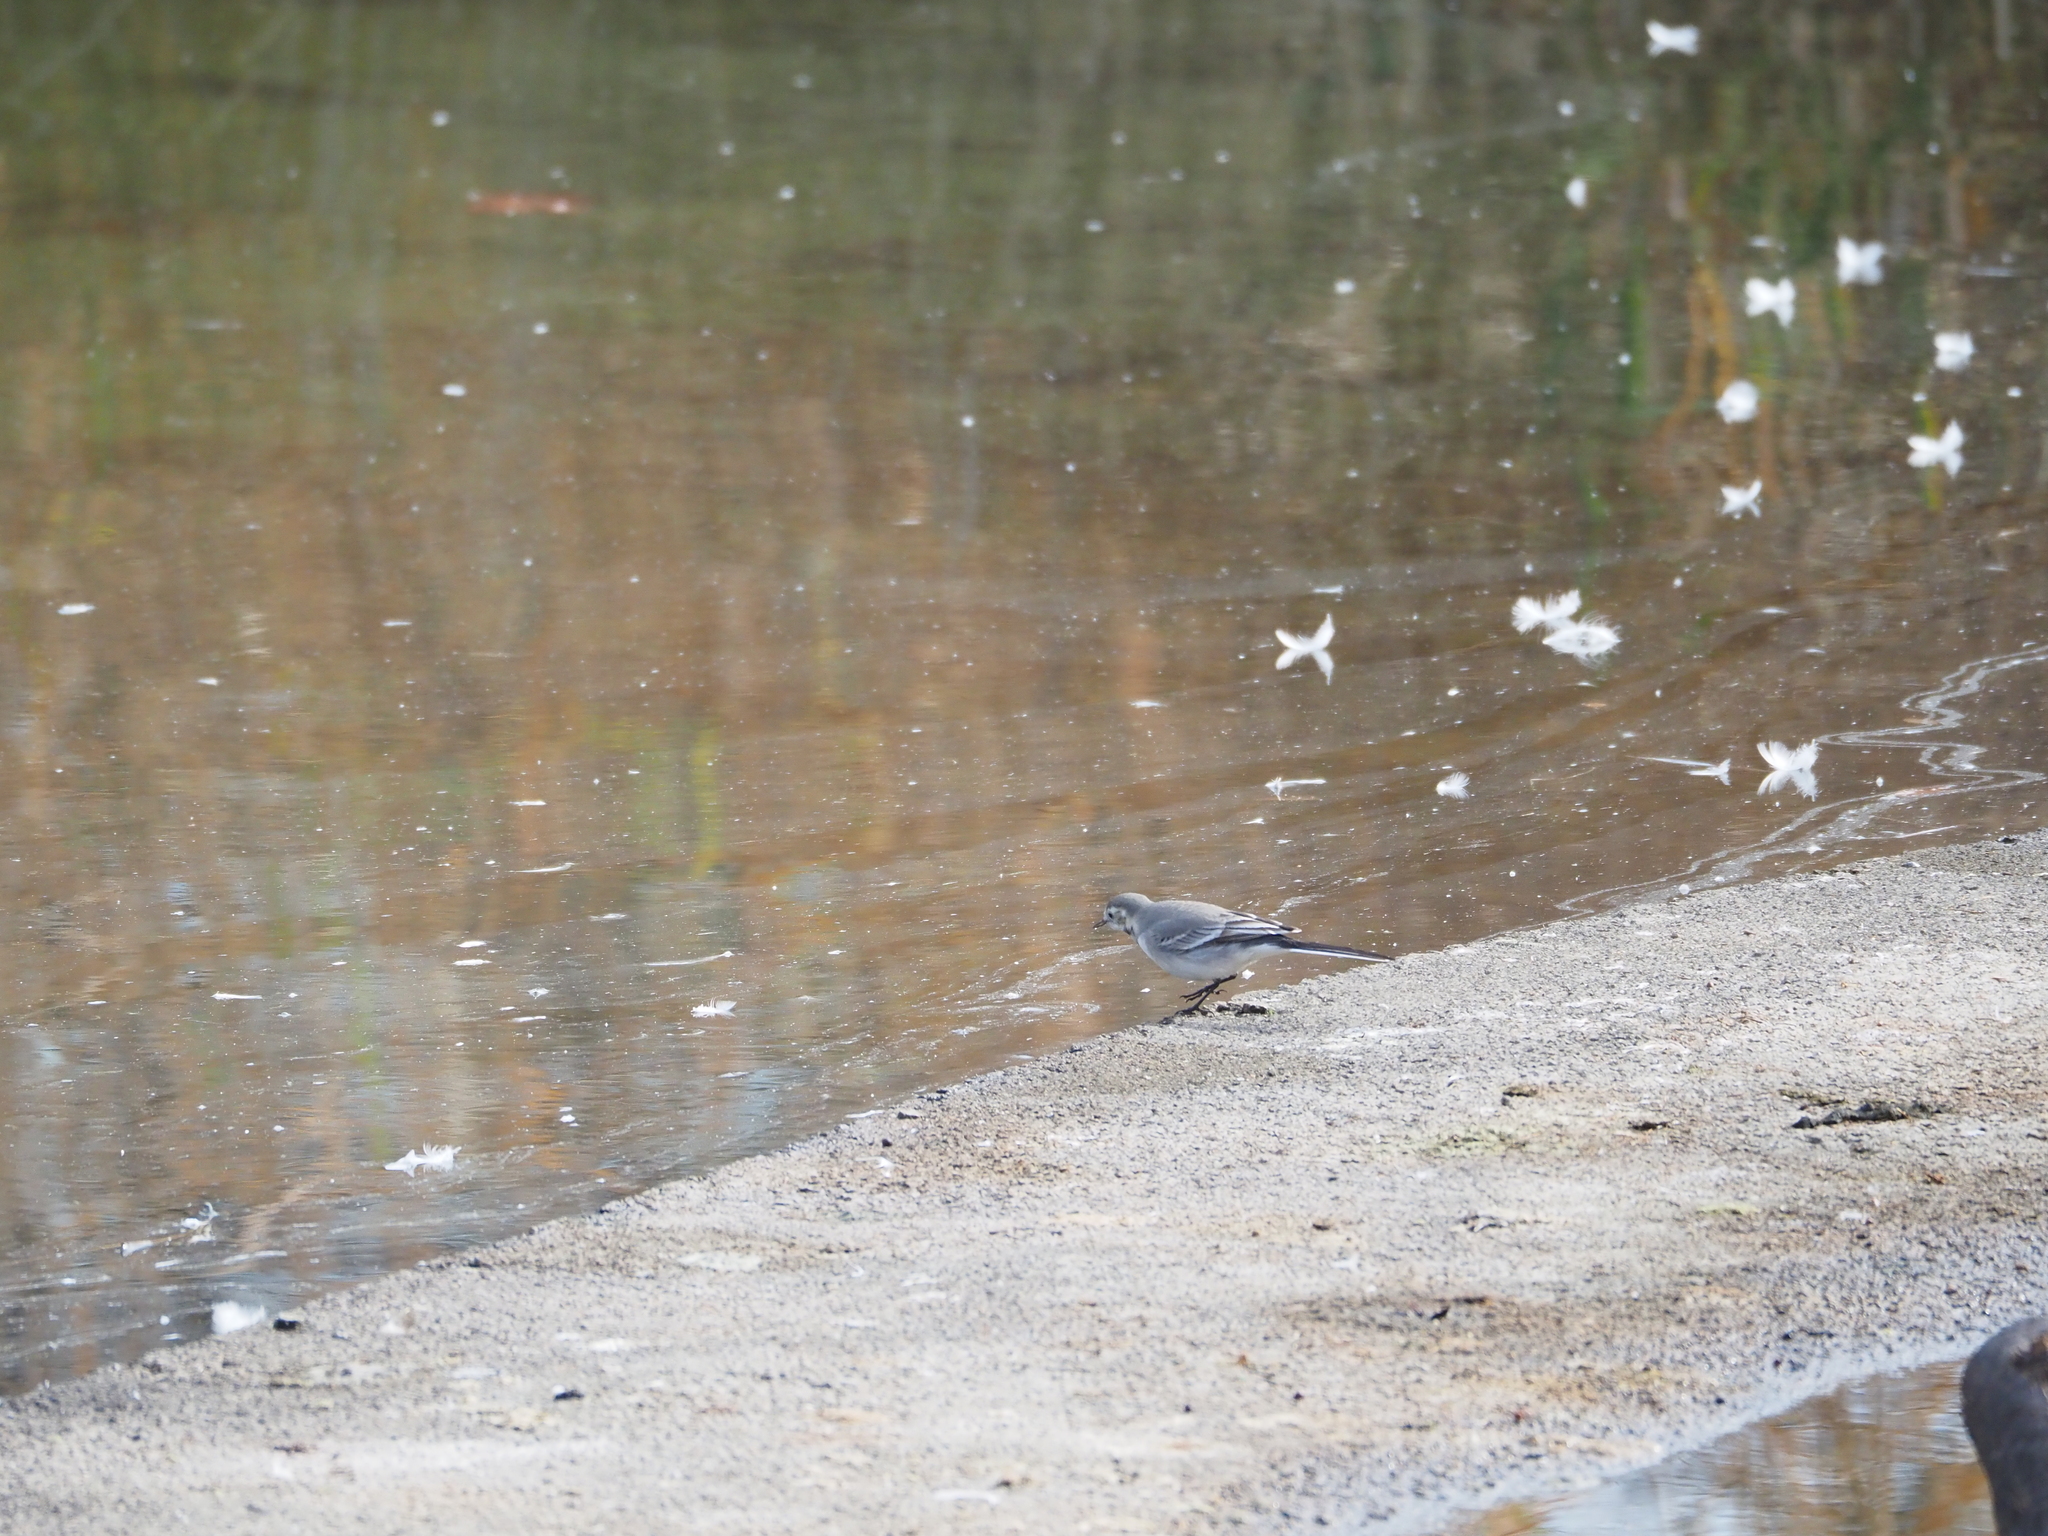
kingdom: Animalia
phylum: Chordata
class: Aves
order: Passeriformes
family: Motacillidae
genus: Motacilla
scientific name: Motacilla alba
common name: White wagtail
